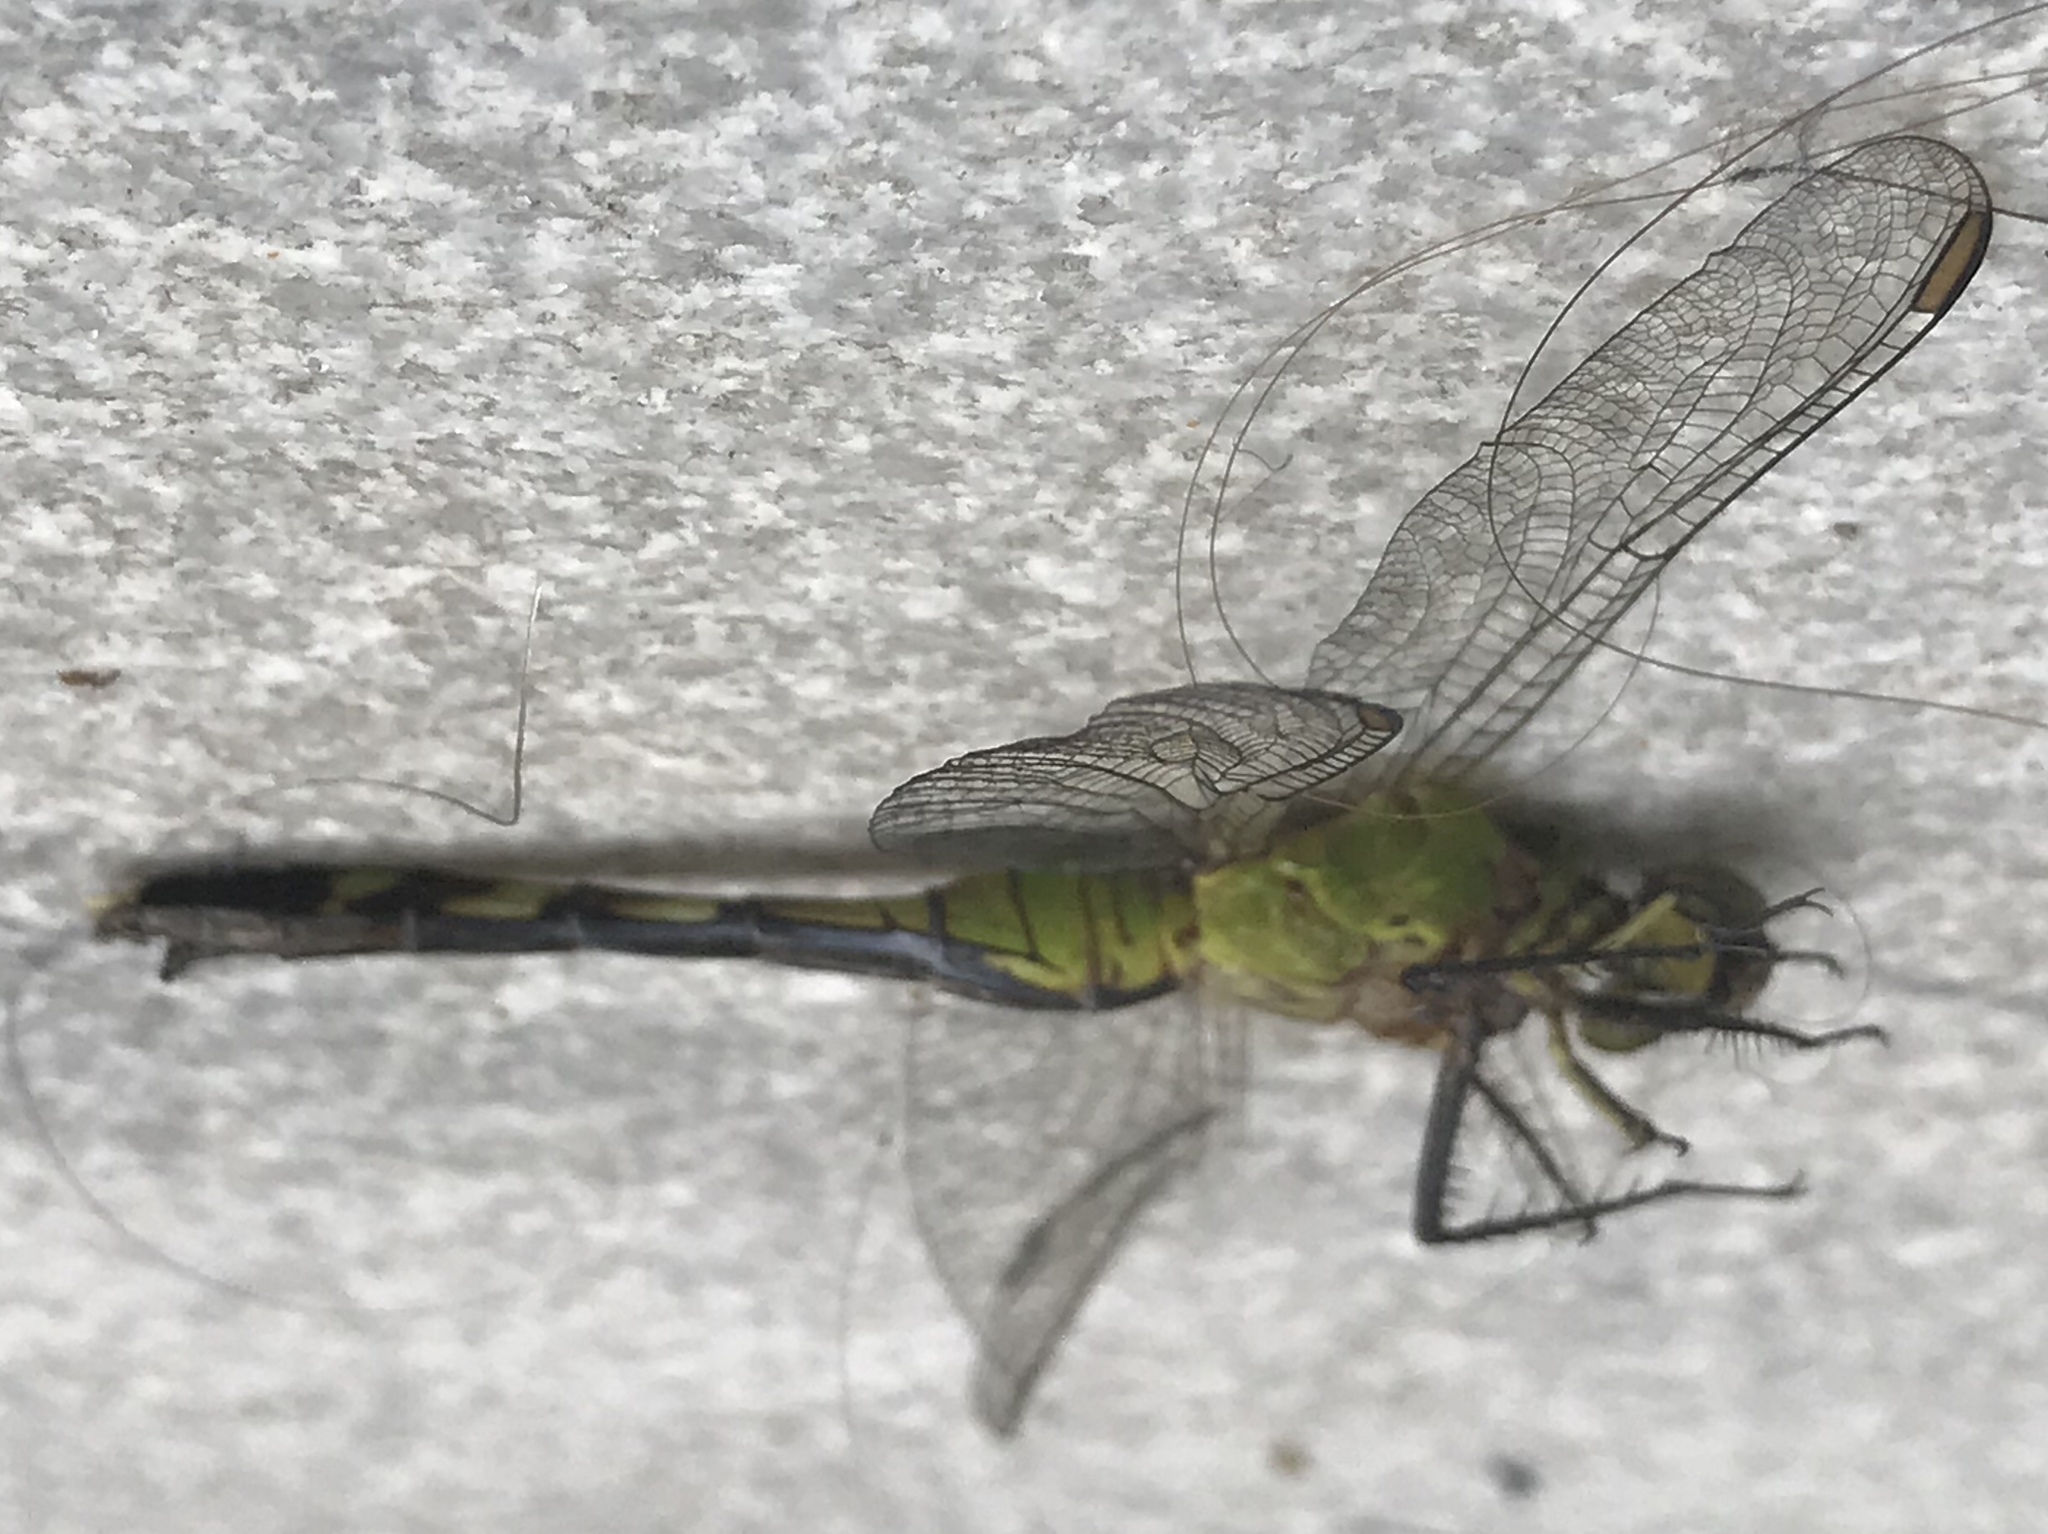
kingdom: Animalia
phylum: Arthropoda
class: Insecta
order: Odonata
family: Libellulidae
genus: Erythemis
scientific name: Erythemis simplicicollis
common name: Eastern pondhawk
